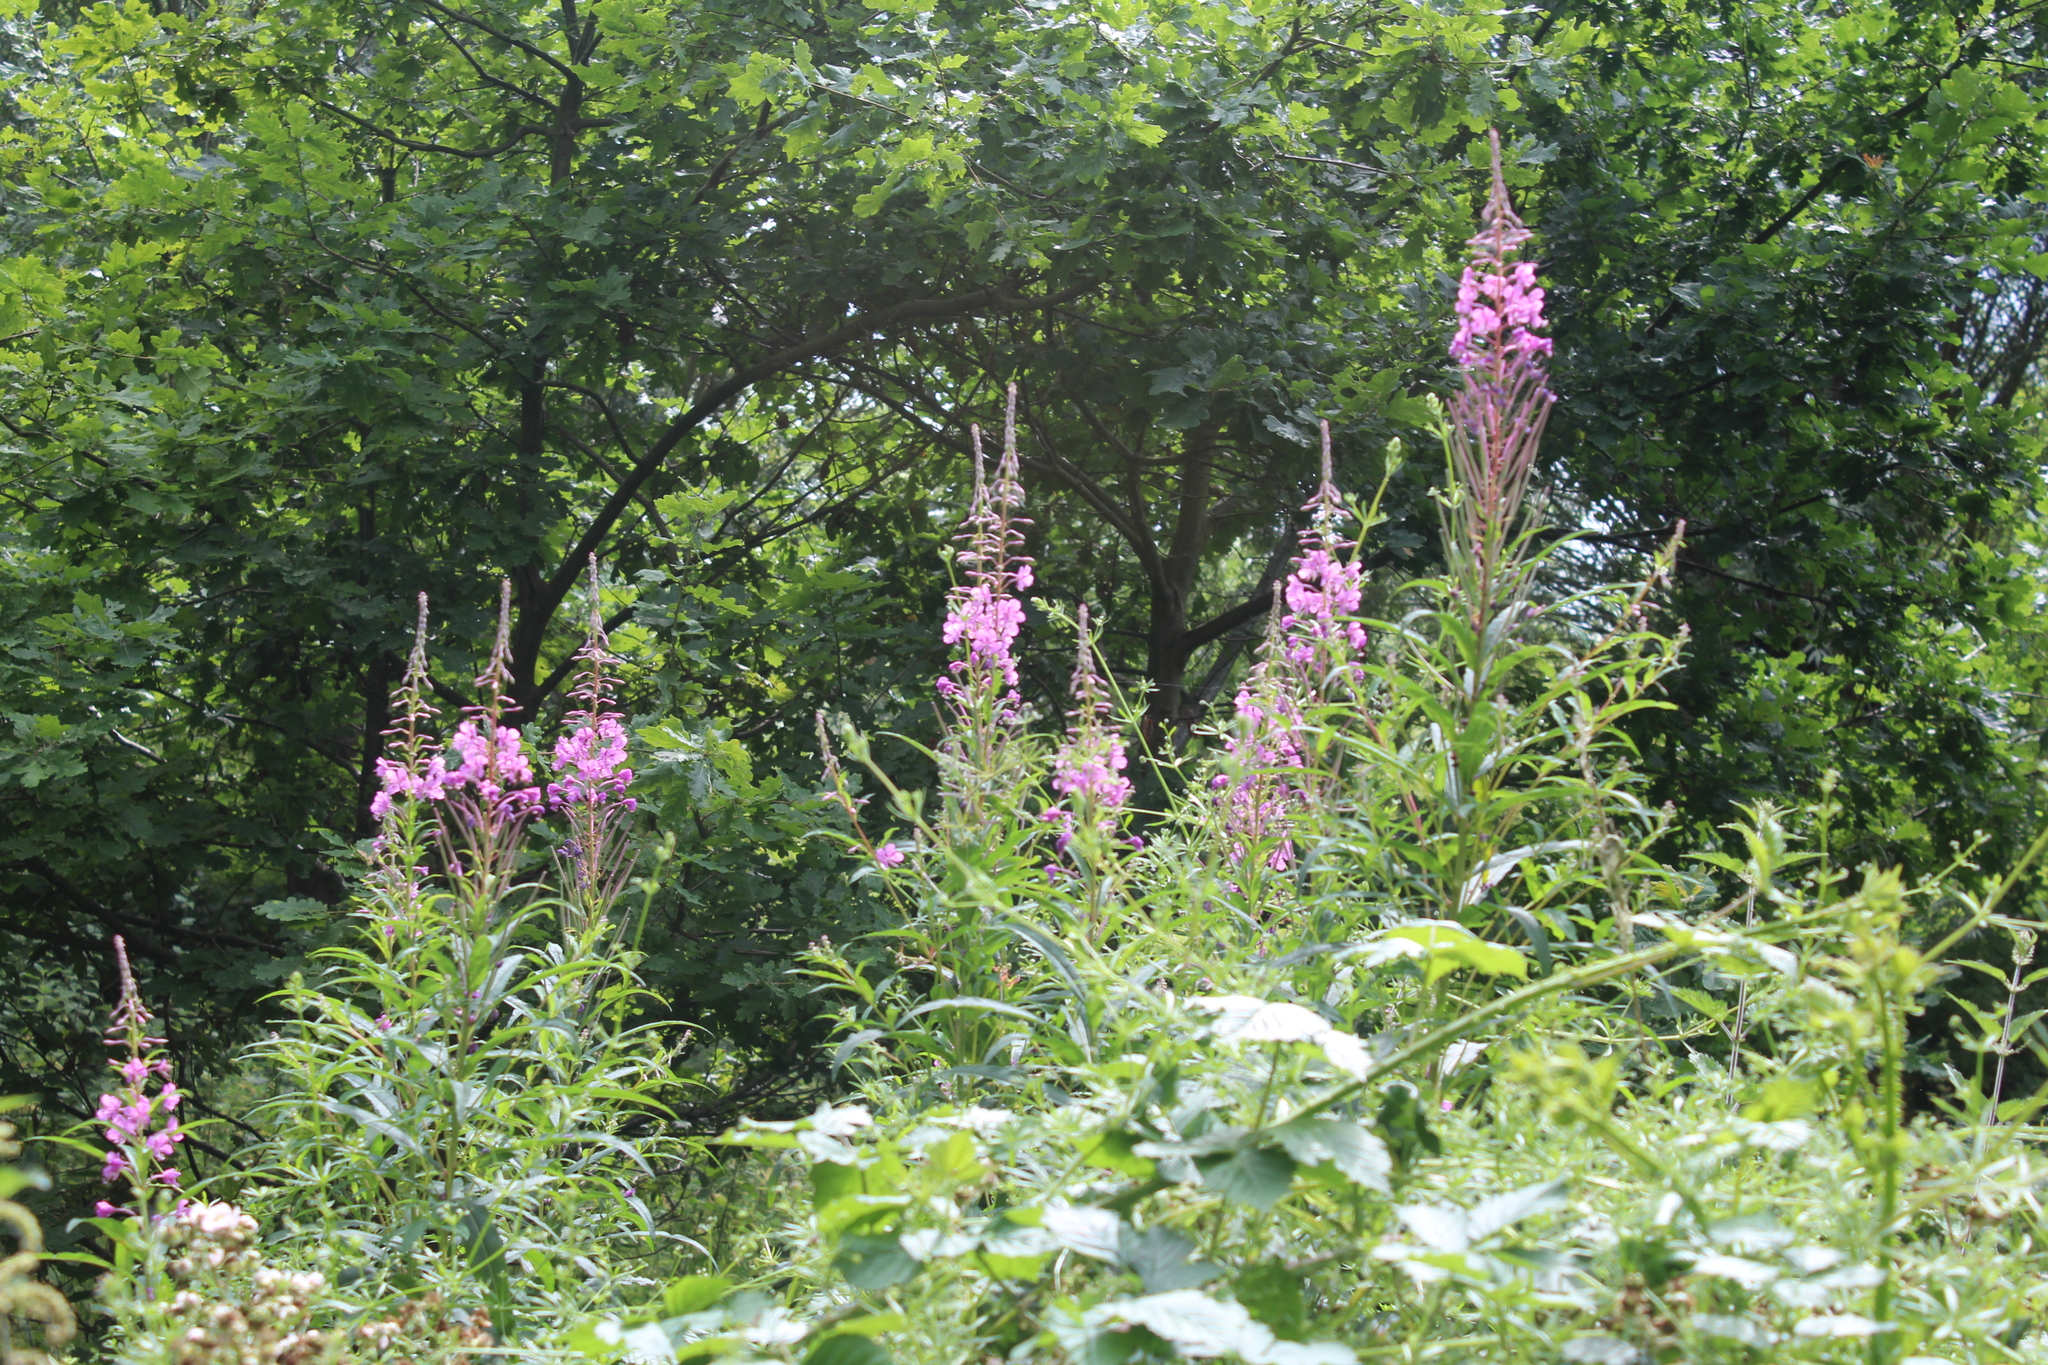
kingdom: Plantae
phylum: Tracheophyta
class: Magnoliopsida
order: Myrtales
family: Onagraceae
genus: Chamaenerion
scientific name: Chamaenerion angustifolium
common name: Fireweed
